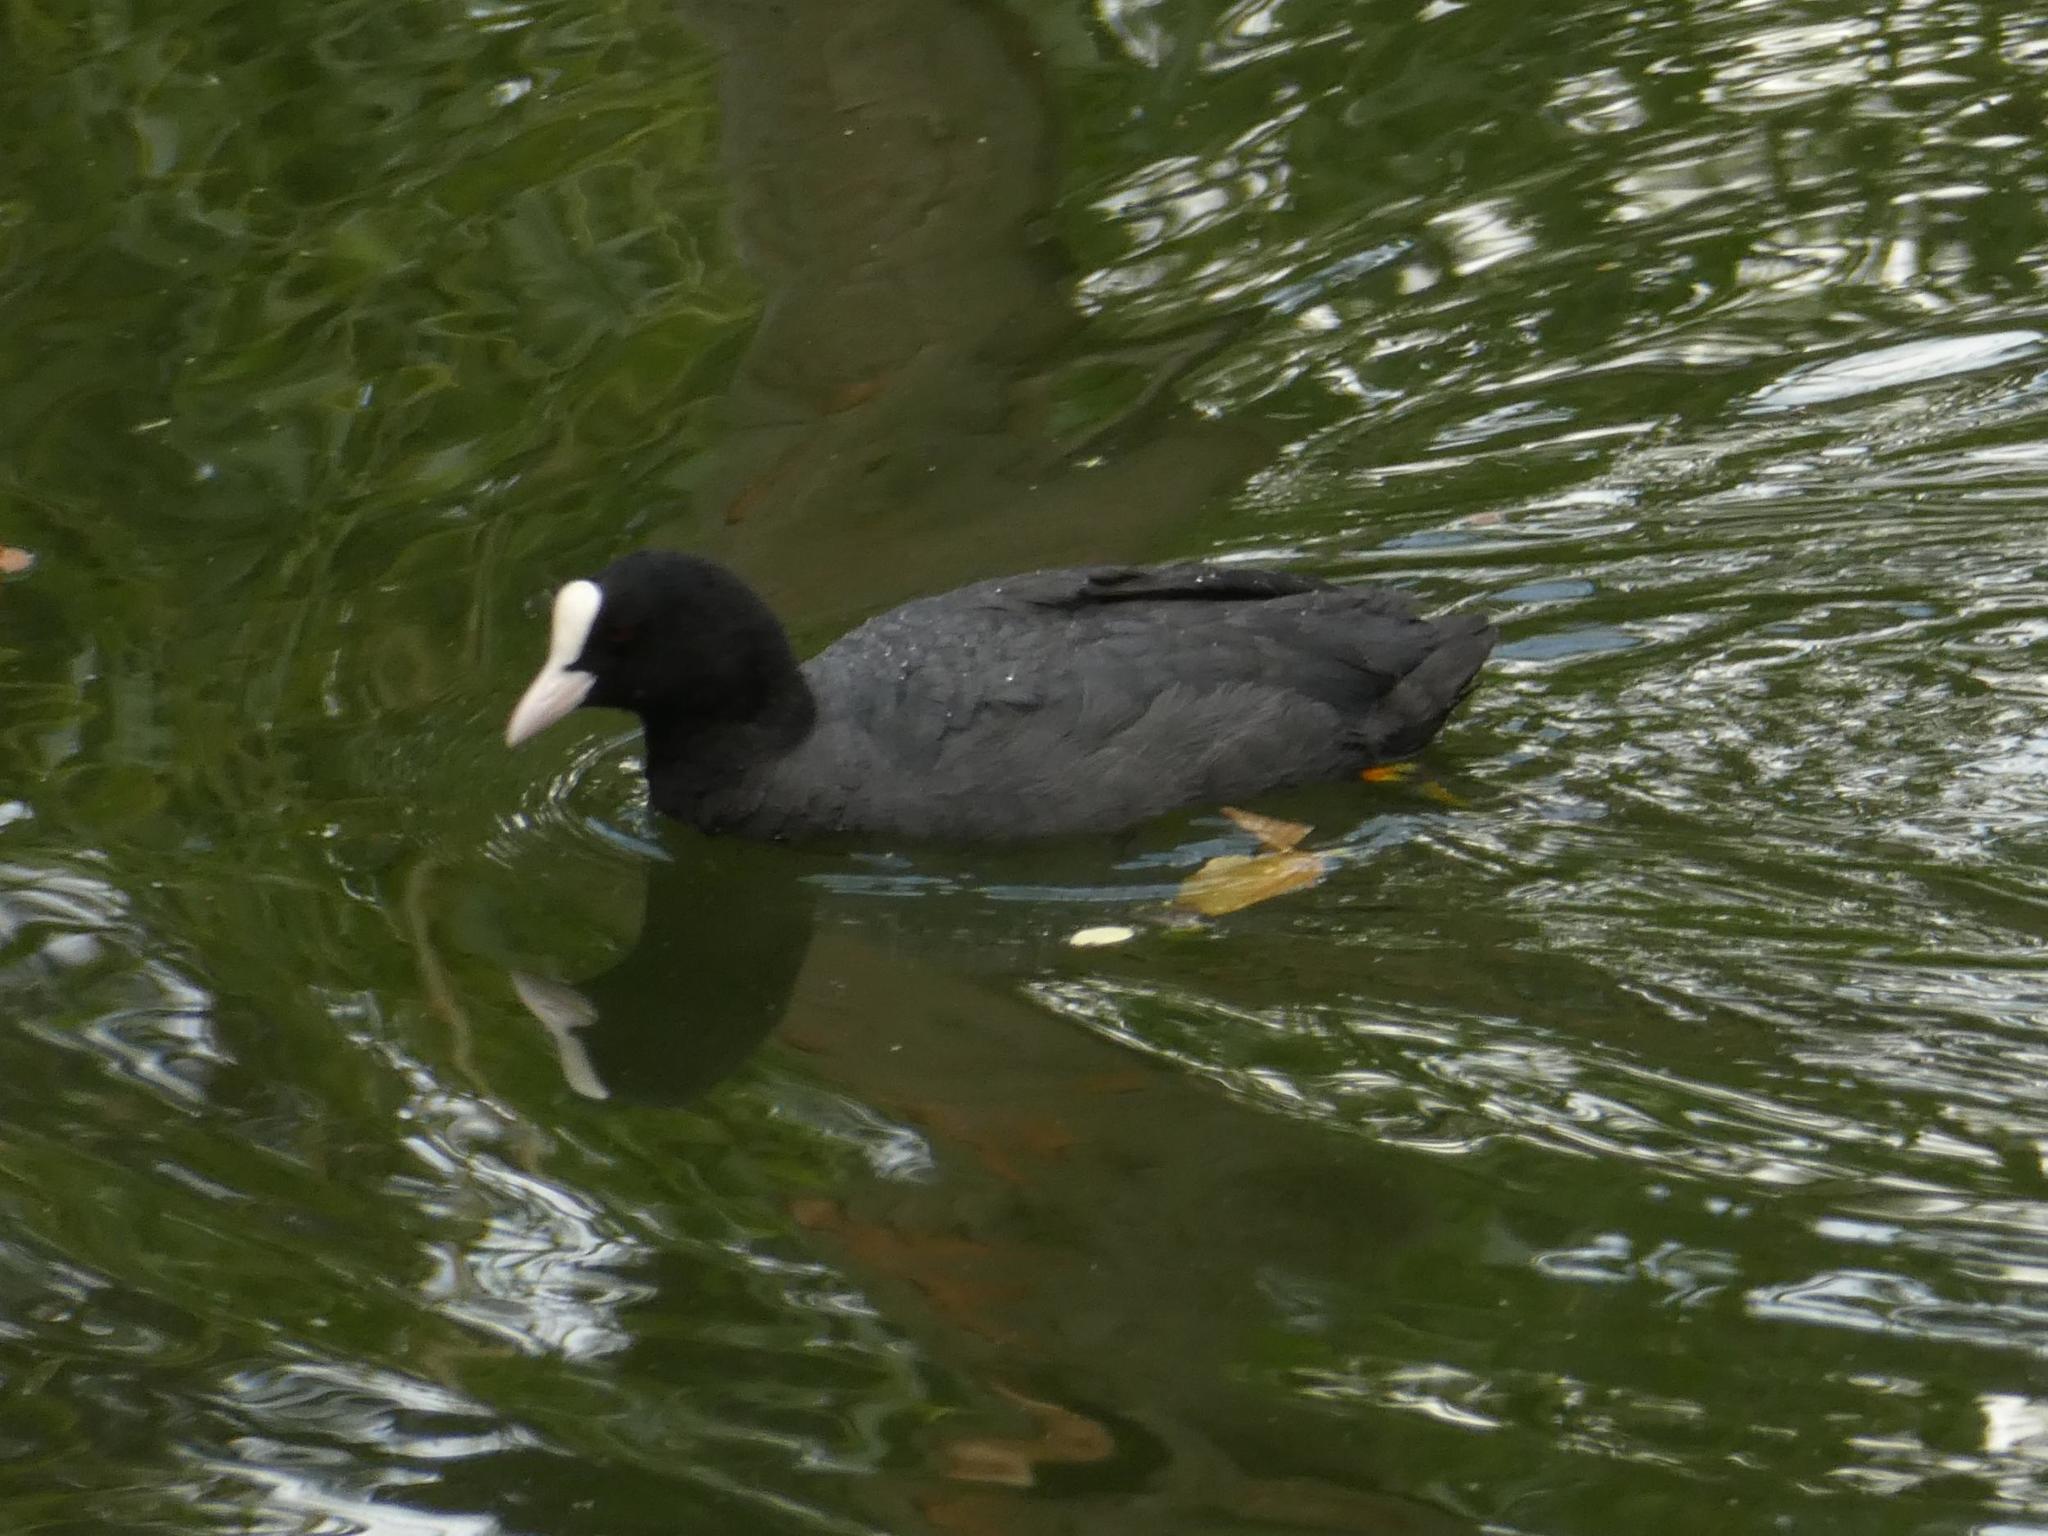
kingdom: Animalia
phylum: Chordata
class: Aves
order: Gruiformes
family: Rallidae
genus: Fulica
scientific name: Fulica atra
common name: Eurasian coot
